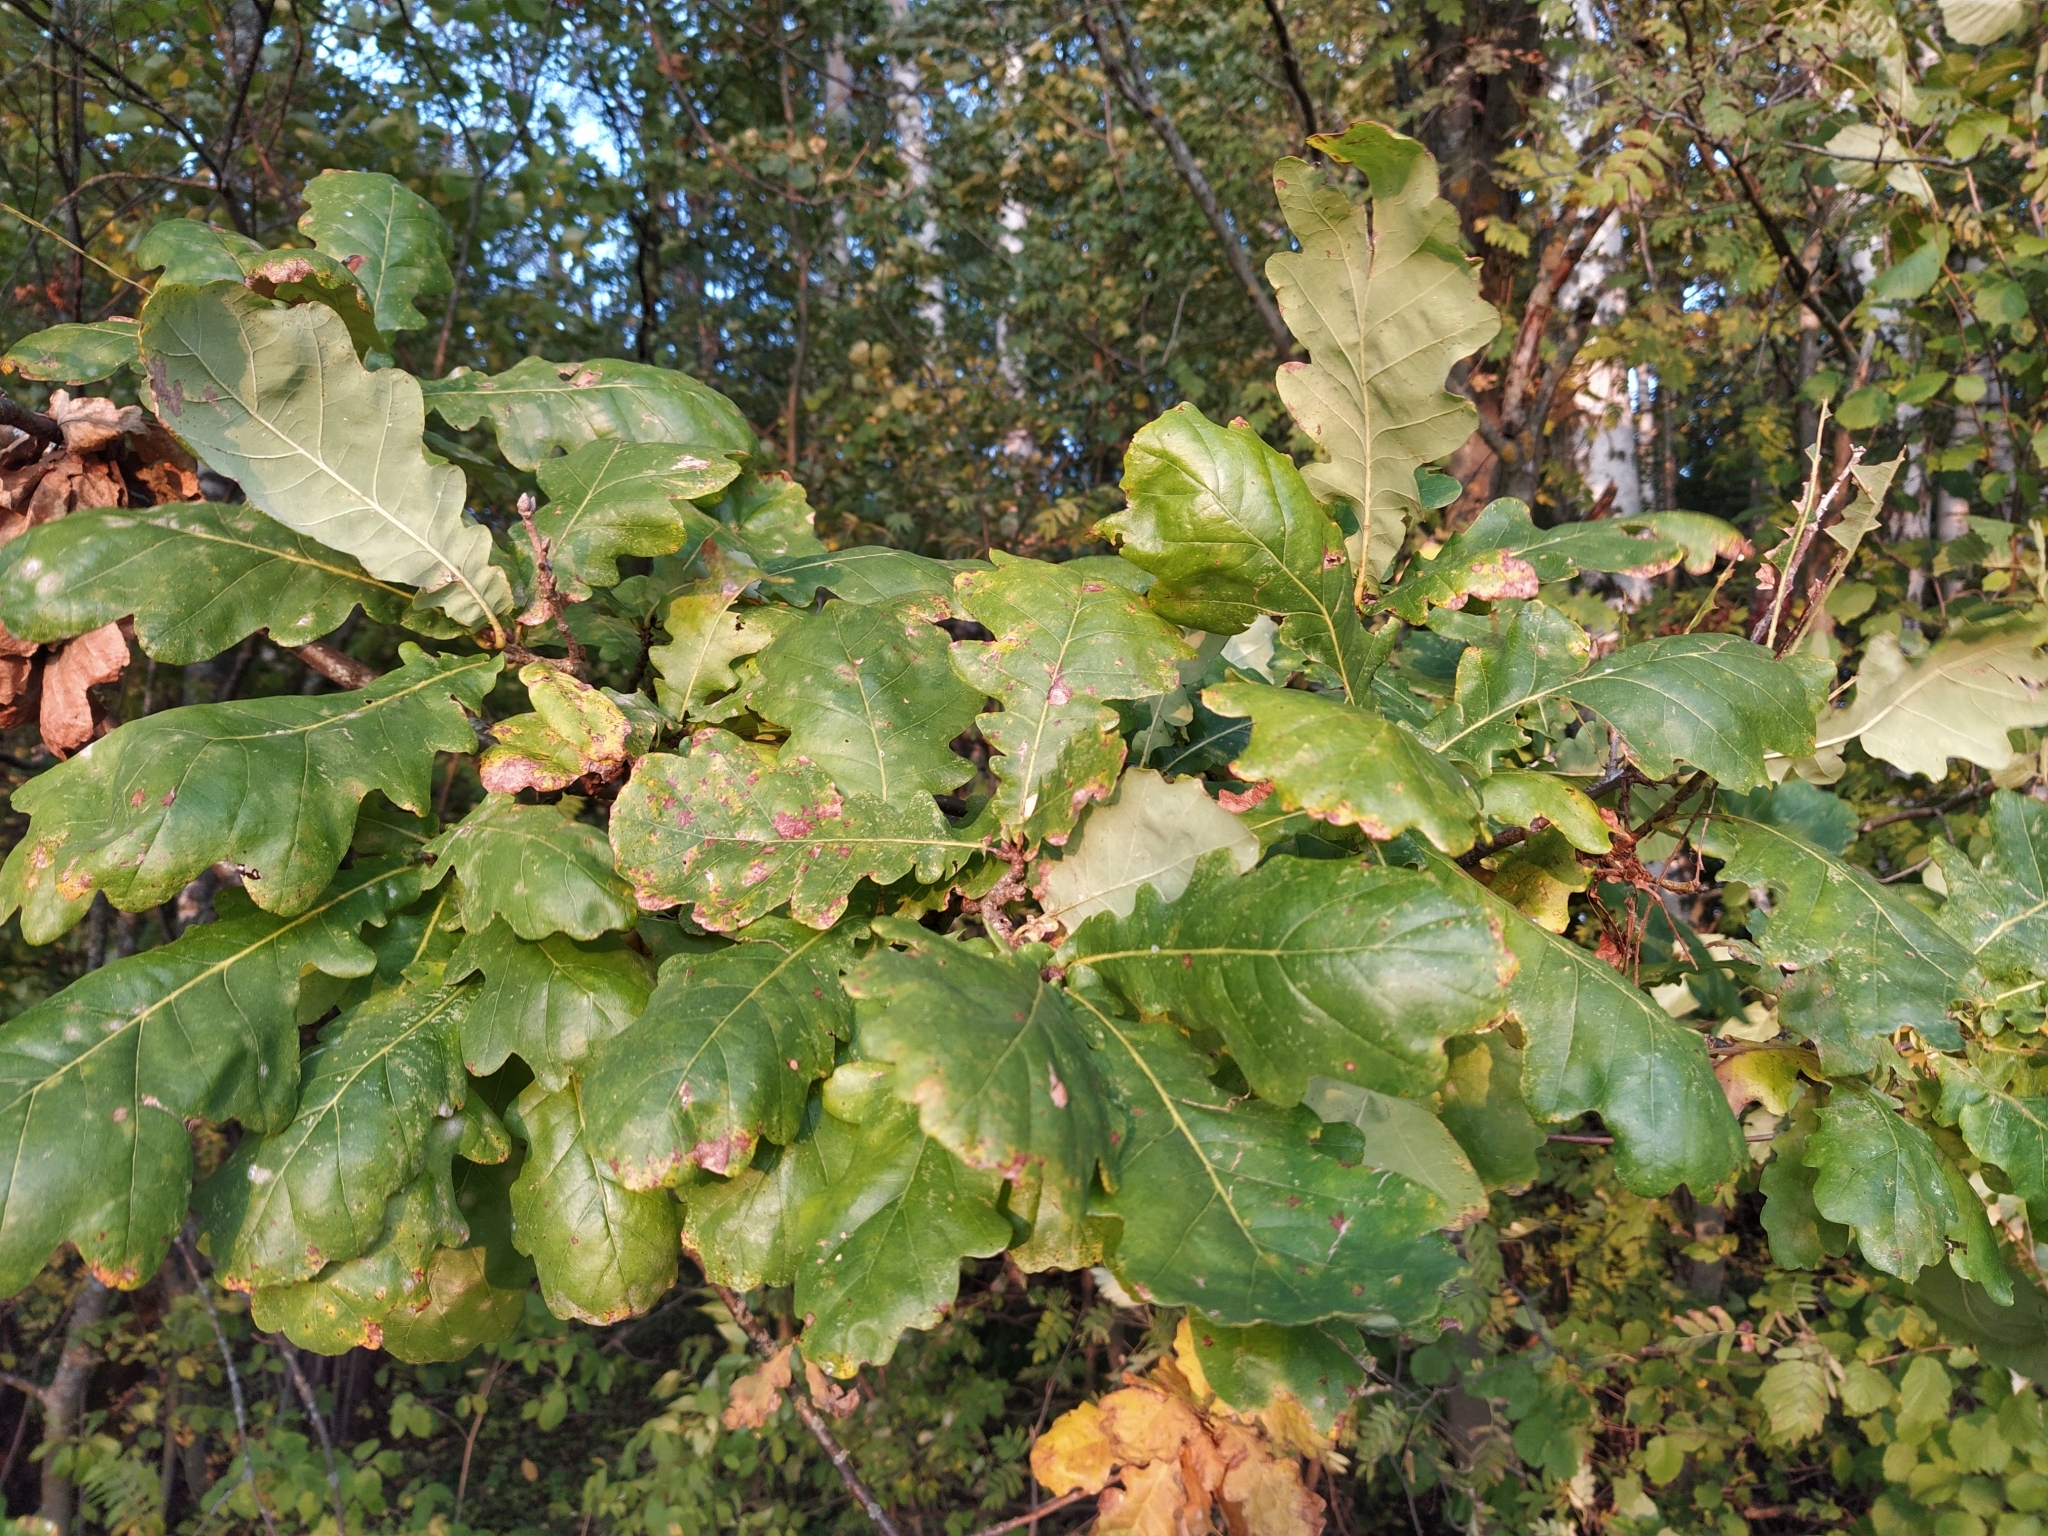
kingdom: Plantae
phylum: Tracheophyta
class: Magnoliopsida
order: Fagales
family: Fagaceae
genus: Quercus
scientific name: Quercus robur
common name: Pedunculate oak
